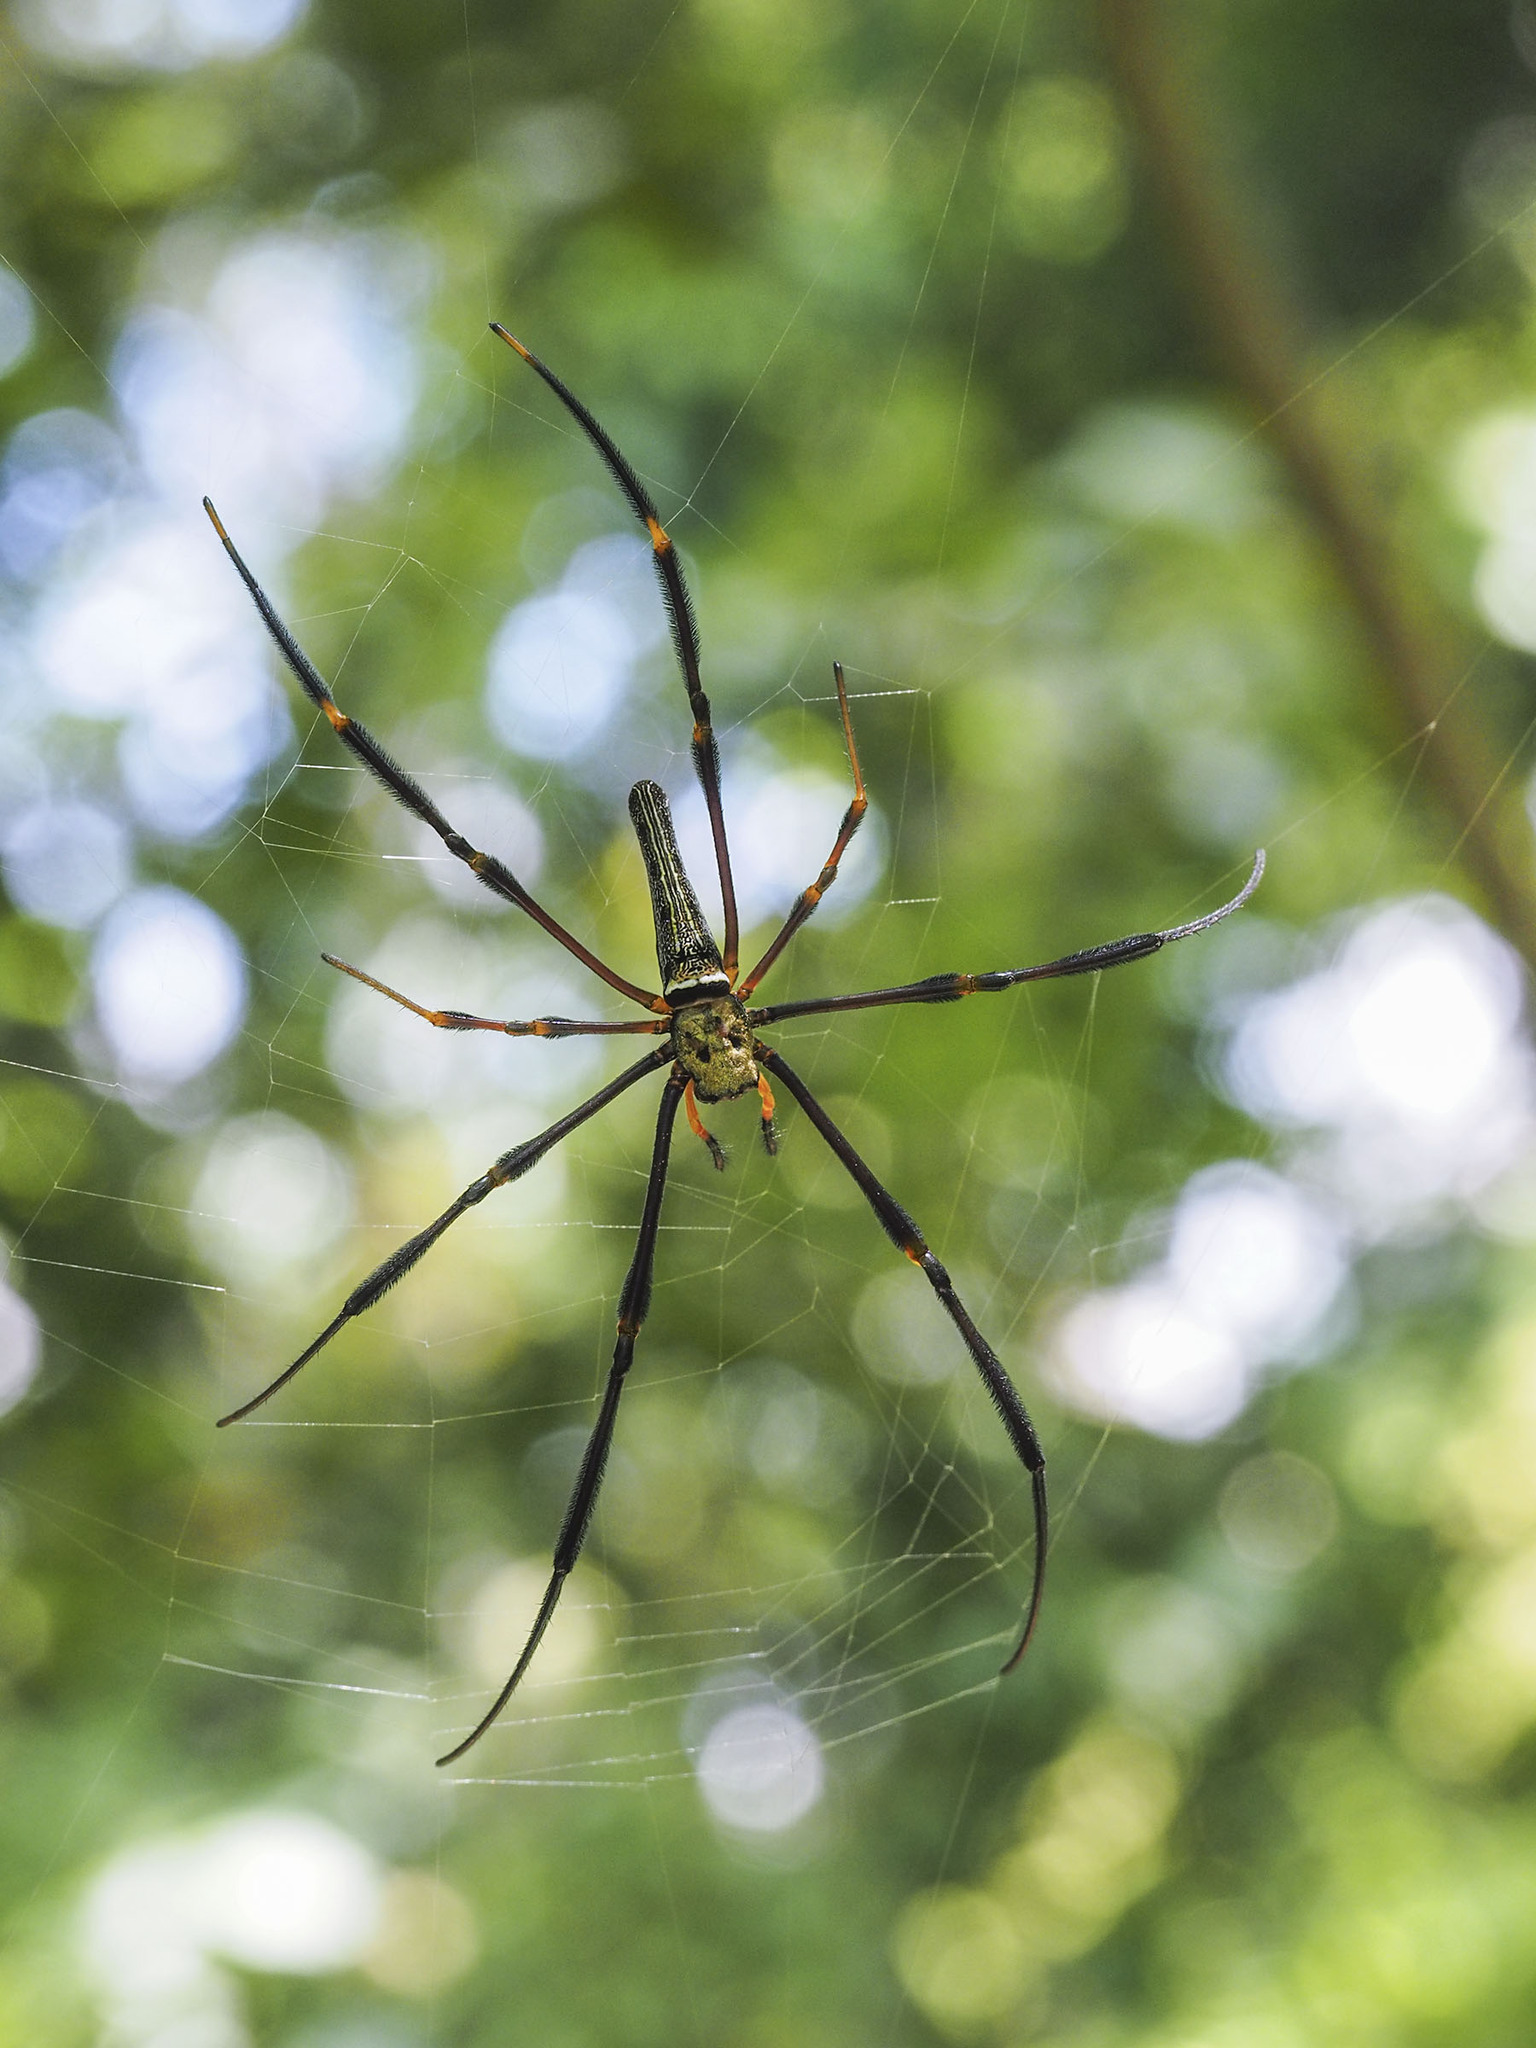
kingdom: Animalia
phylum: Arthropoda
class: Arachnida
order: Araneae
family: Araneidae
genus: Nephila
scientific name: Nephila pilipes
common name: Giant golden orb weaver
